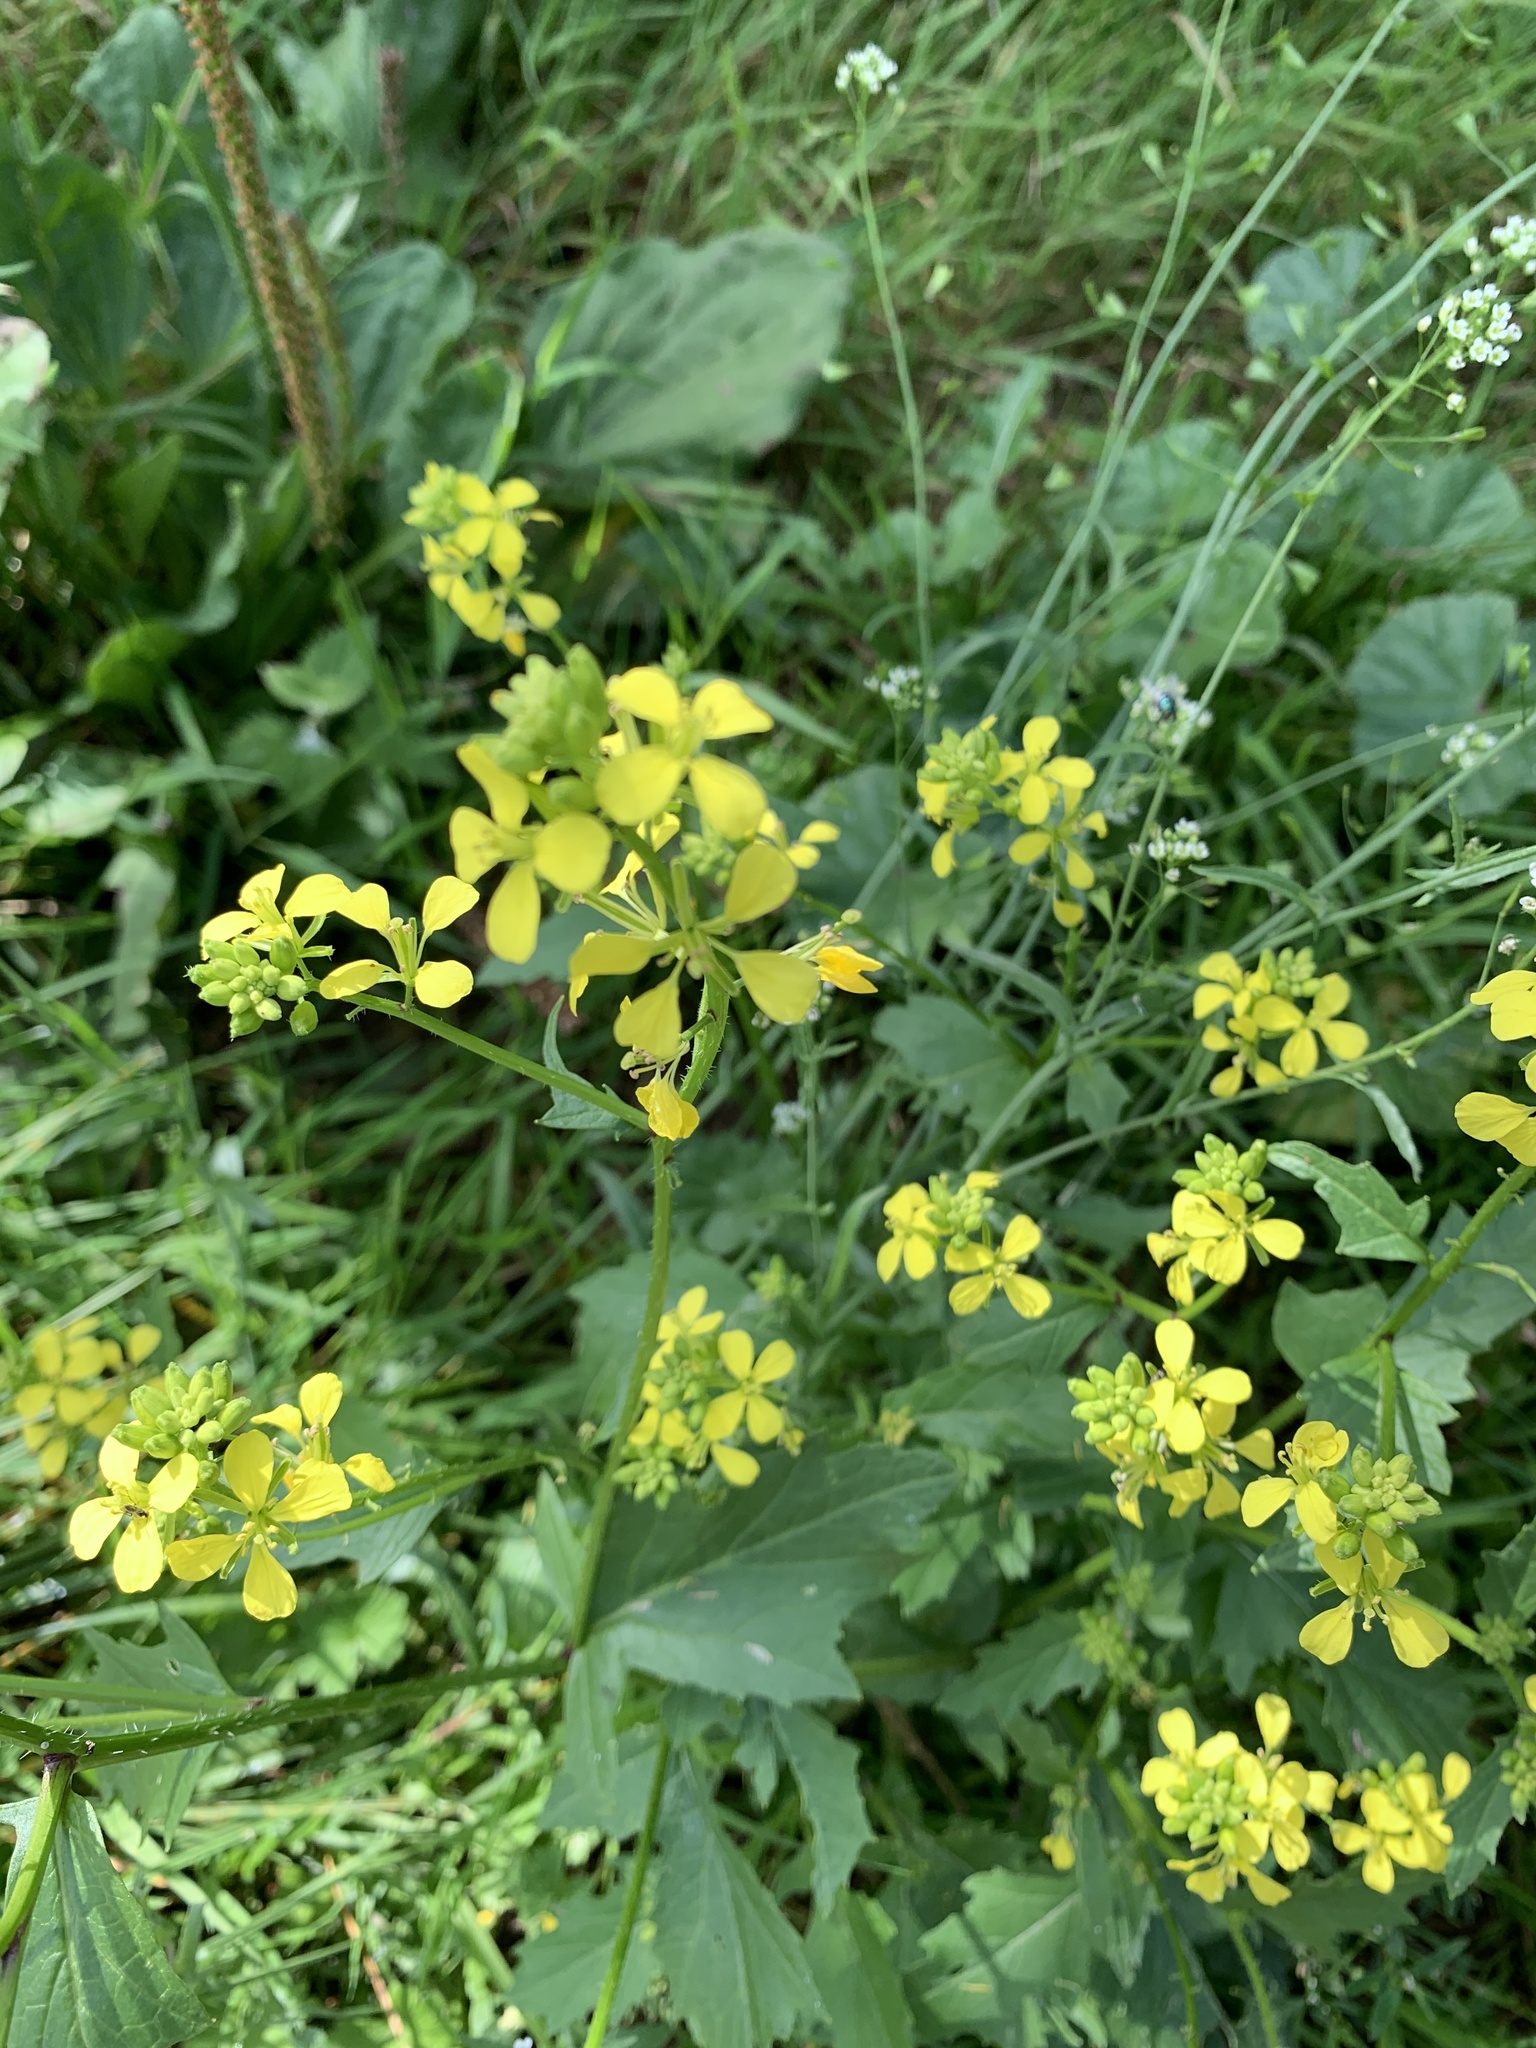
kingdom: Plantae
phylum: Tracheophyta
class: Magnoliopsida
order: Brassicales
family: Brassicaceae
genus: Sinapis
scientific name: Sinapis alba
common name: White mustard
